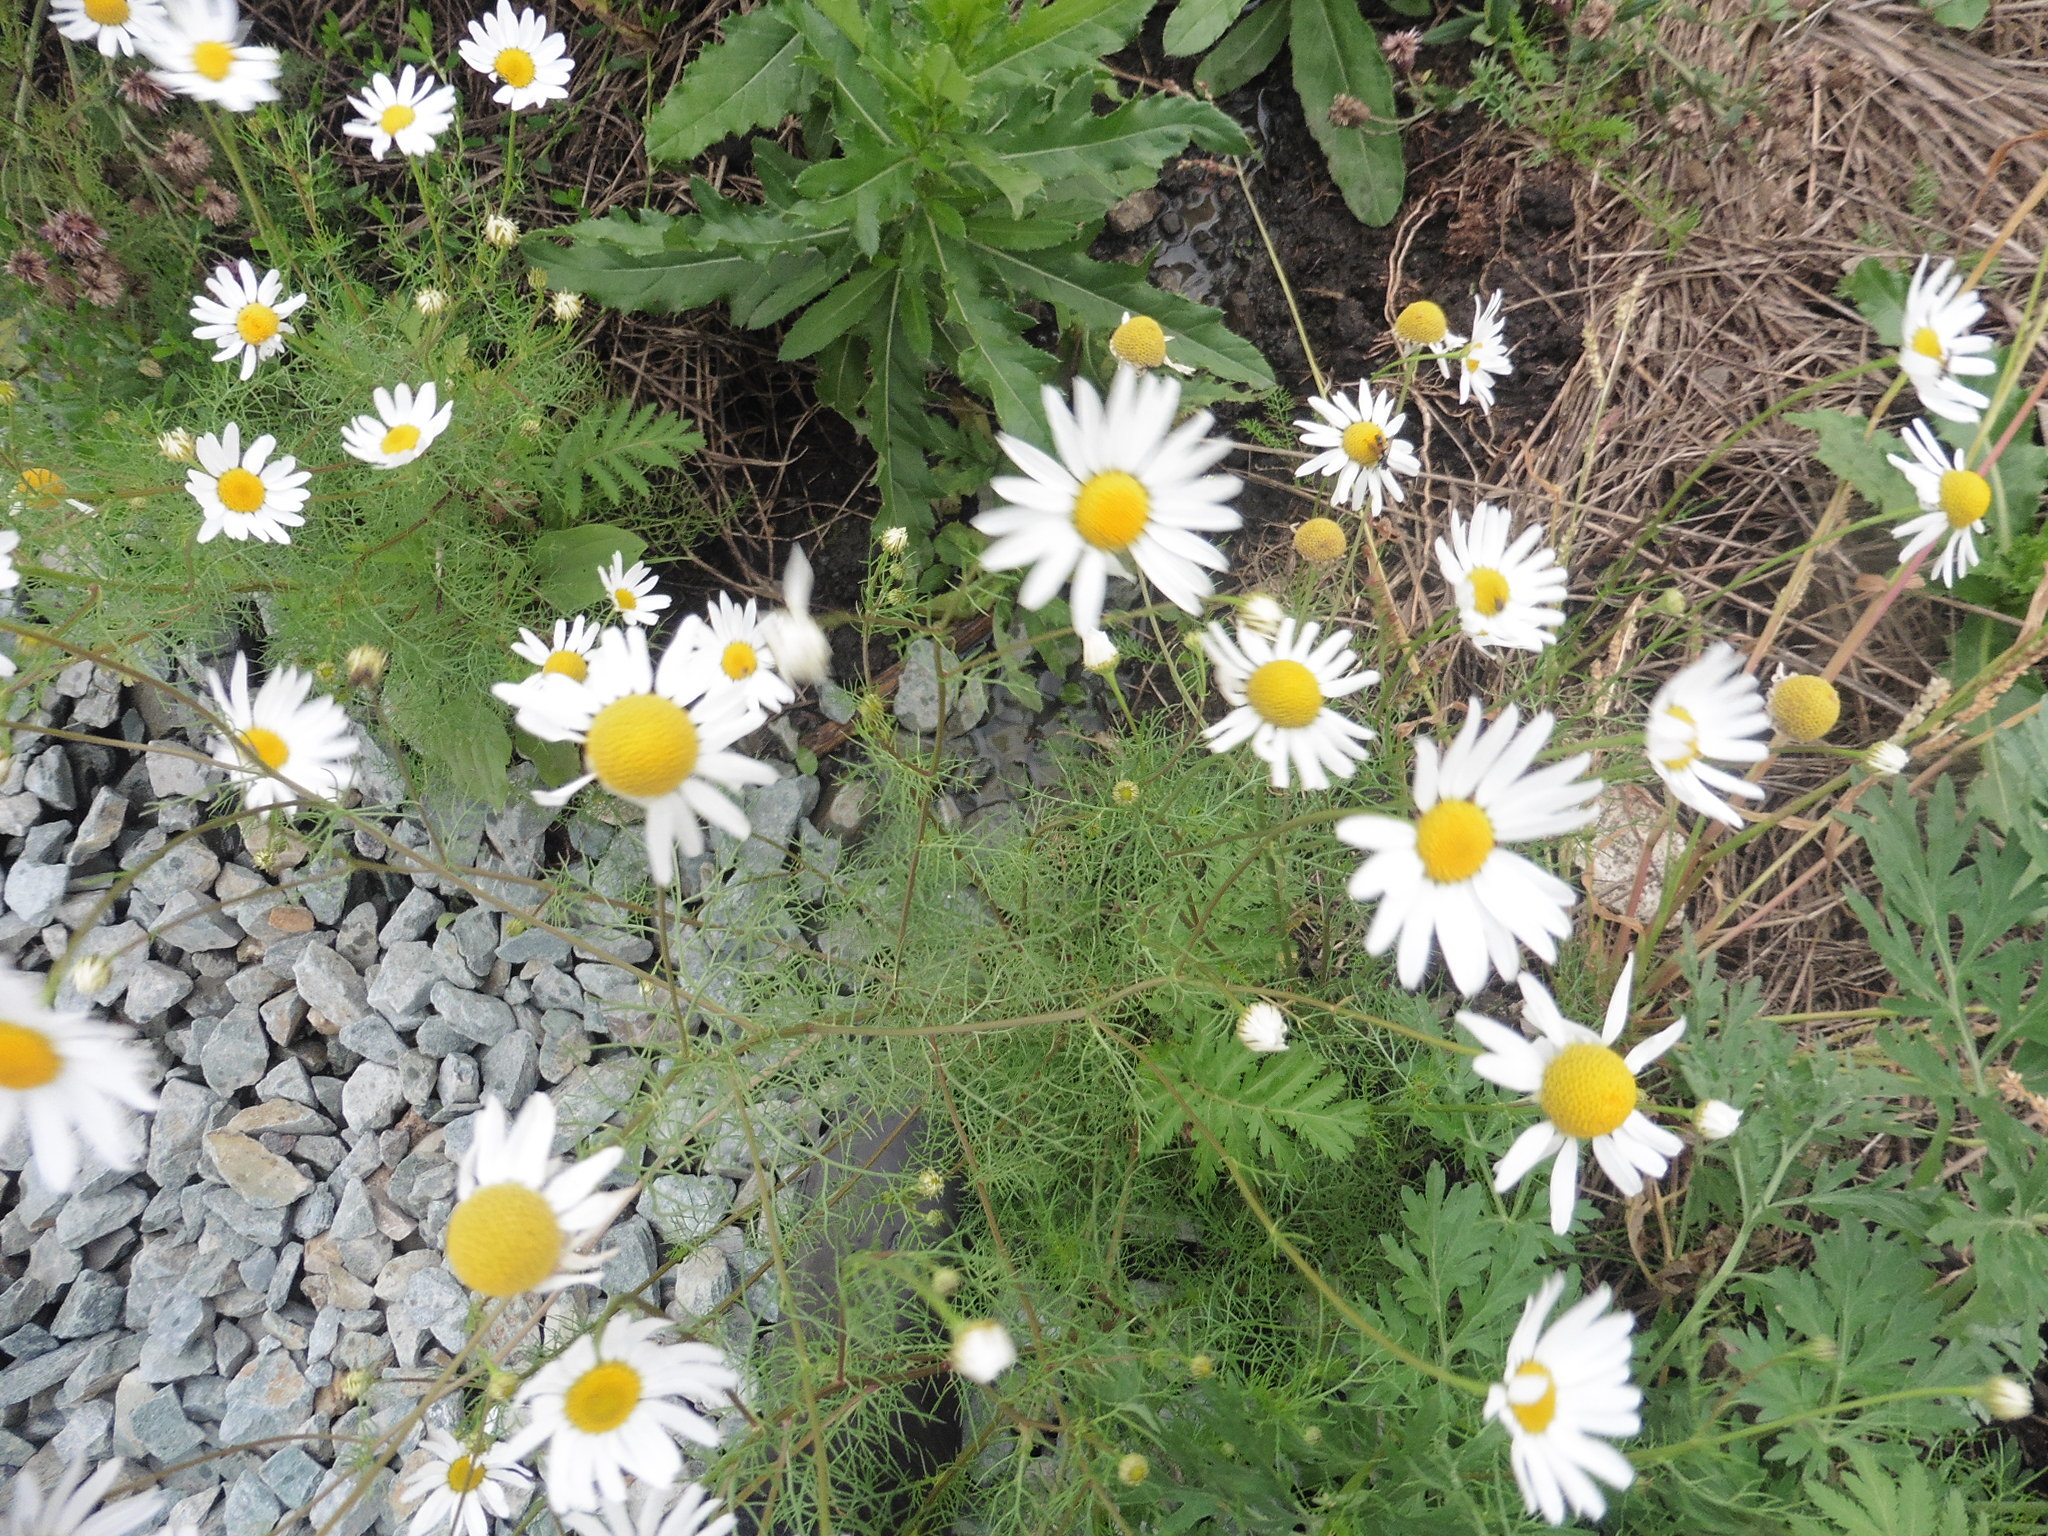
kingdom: Plantae
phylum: Tracheophyta
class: Magnoliopsida
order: Asterales
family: Asteraceae
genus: Tripleurospermum
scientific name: Tripleurospermum inodorum
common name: Scentless mayweed
